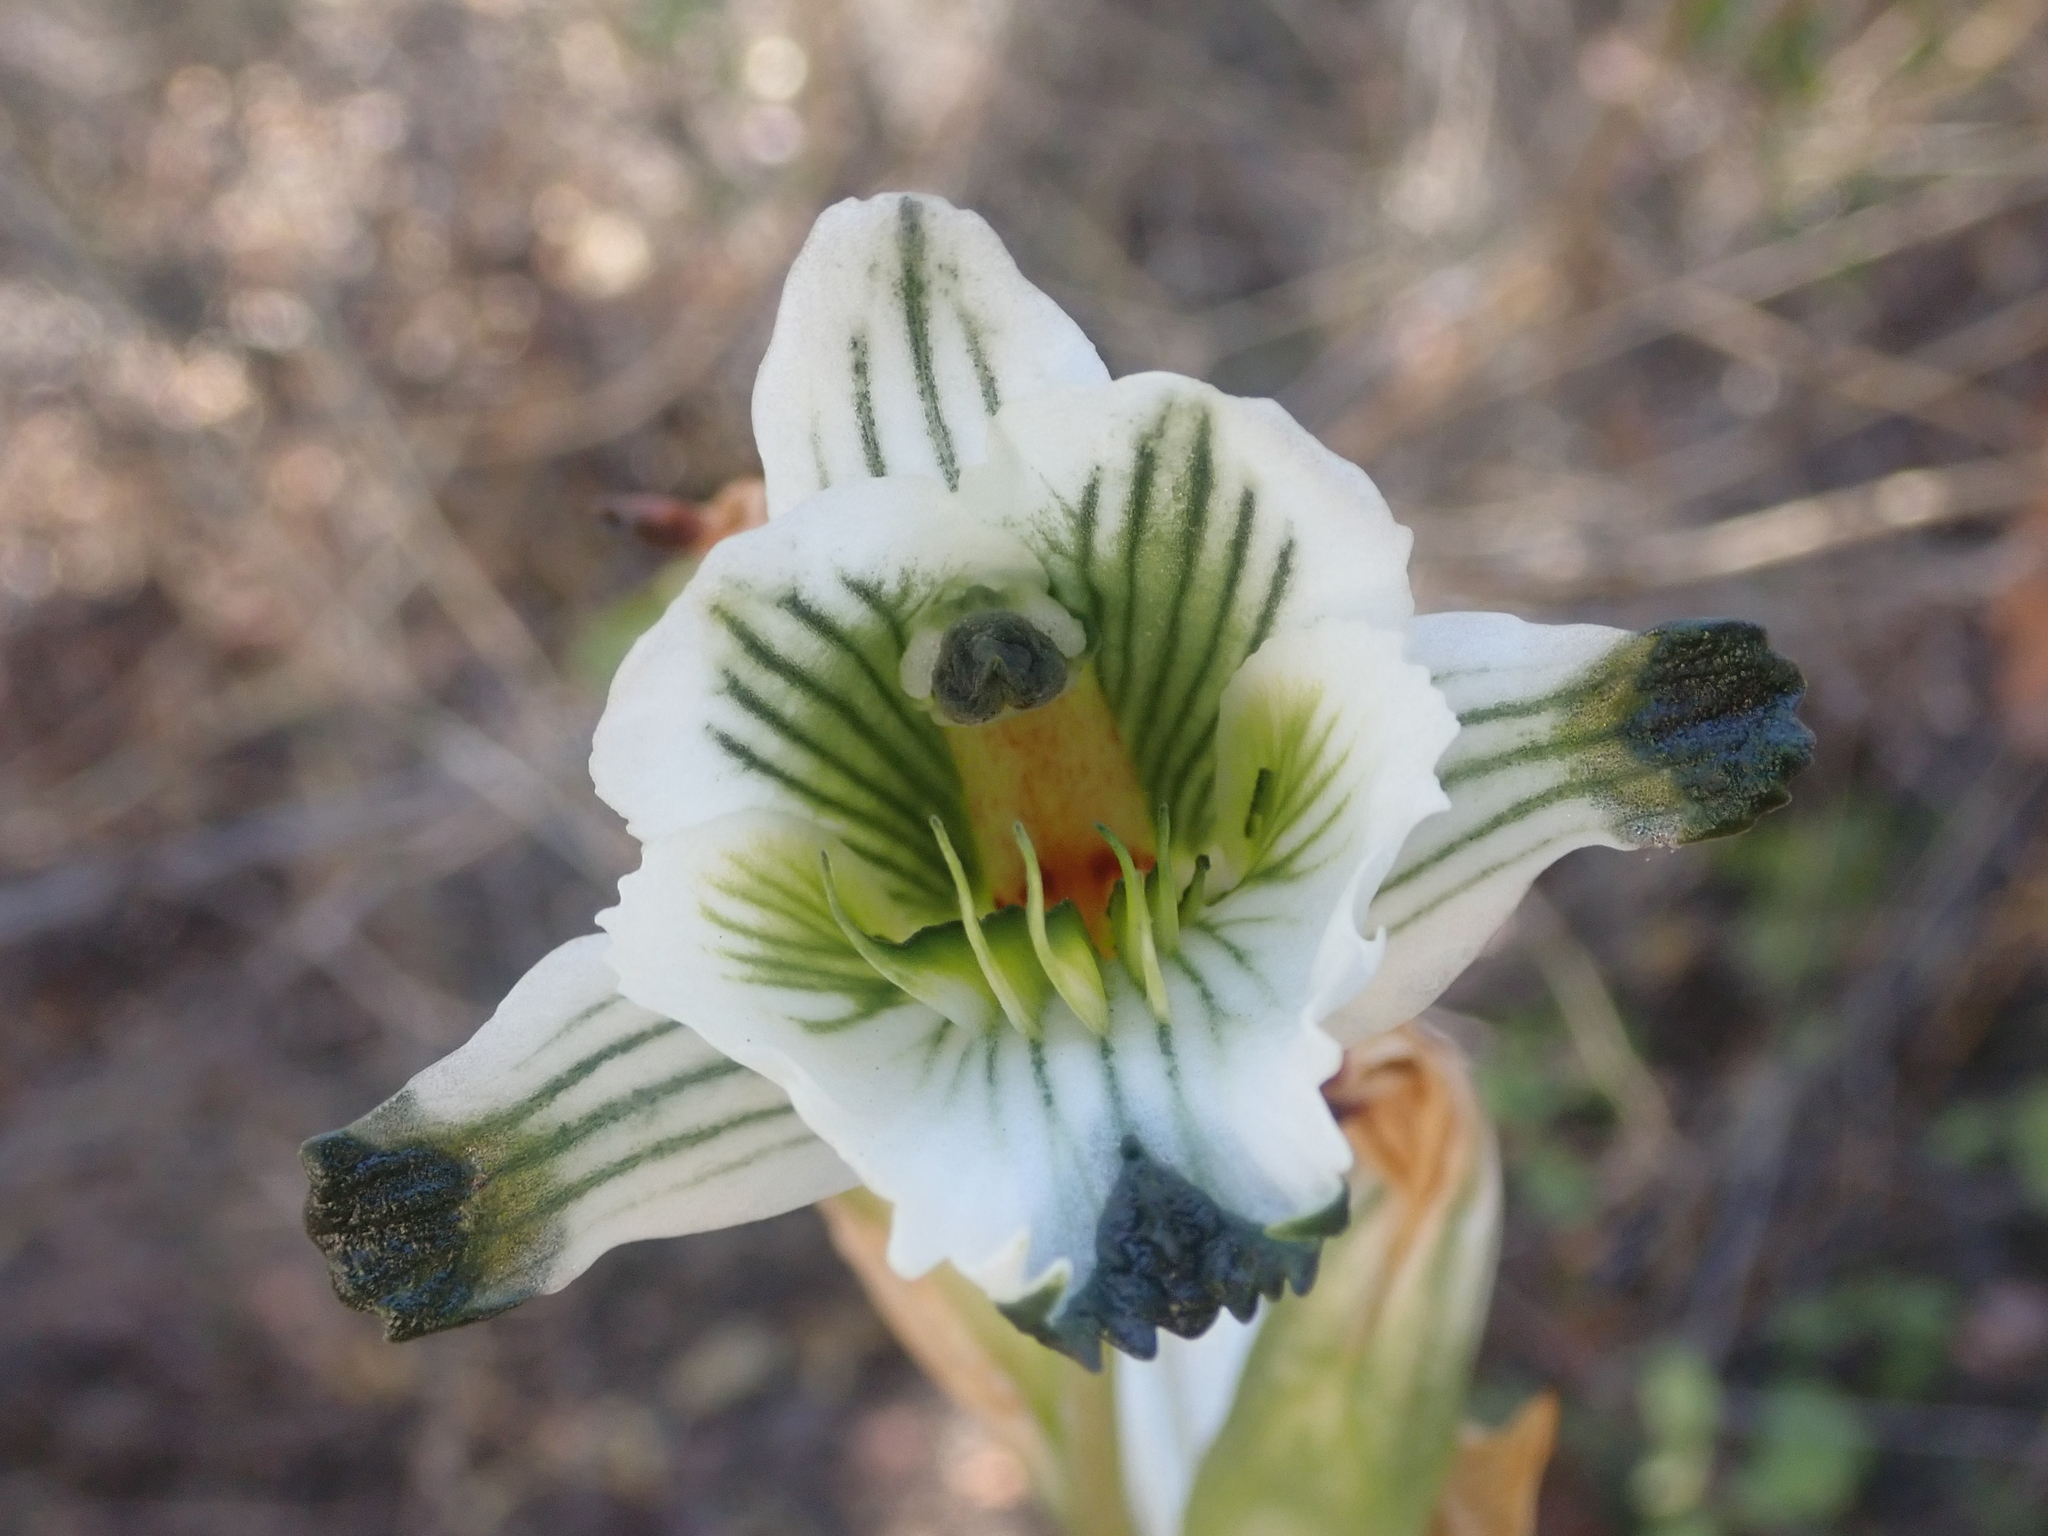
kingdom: Plantae
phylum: Tracheophyta
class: Liliopsida
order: Asparagales
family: Orchidaceae
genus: Chloraea
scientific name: Chloraea bletioides
